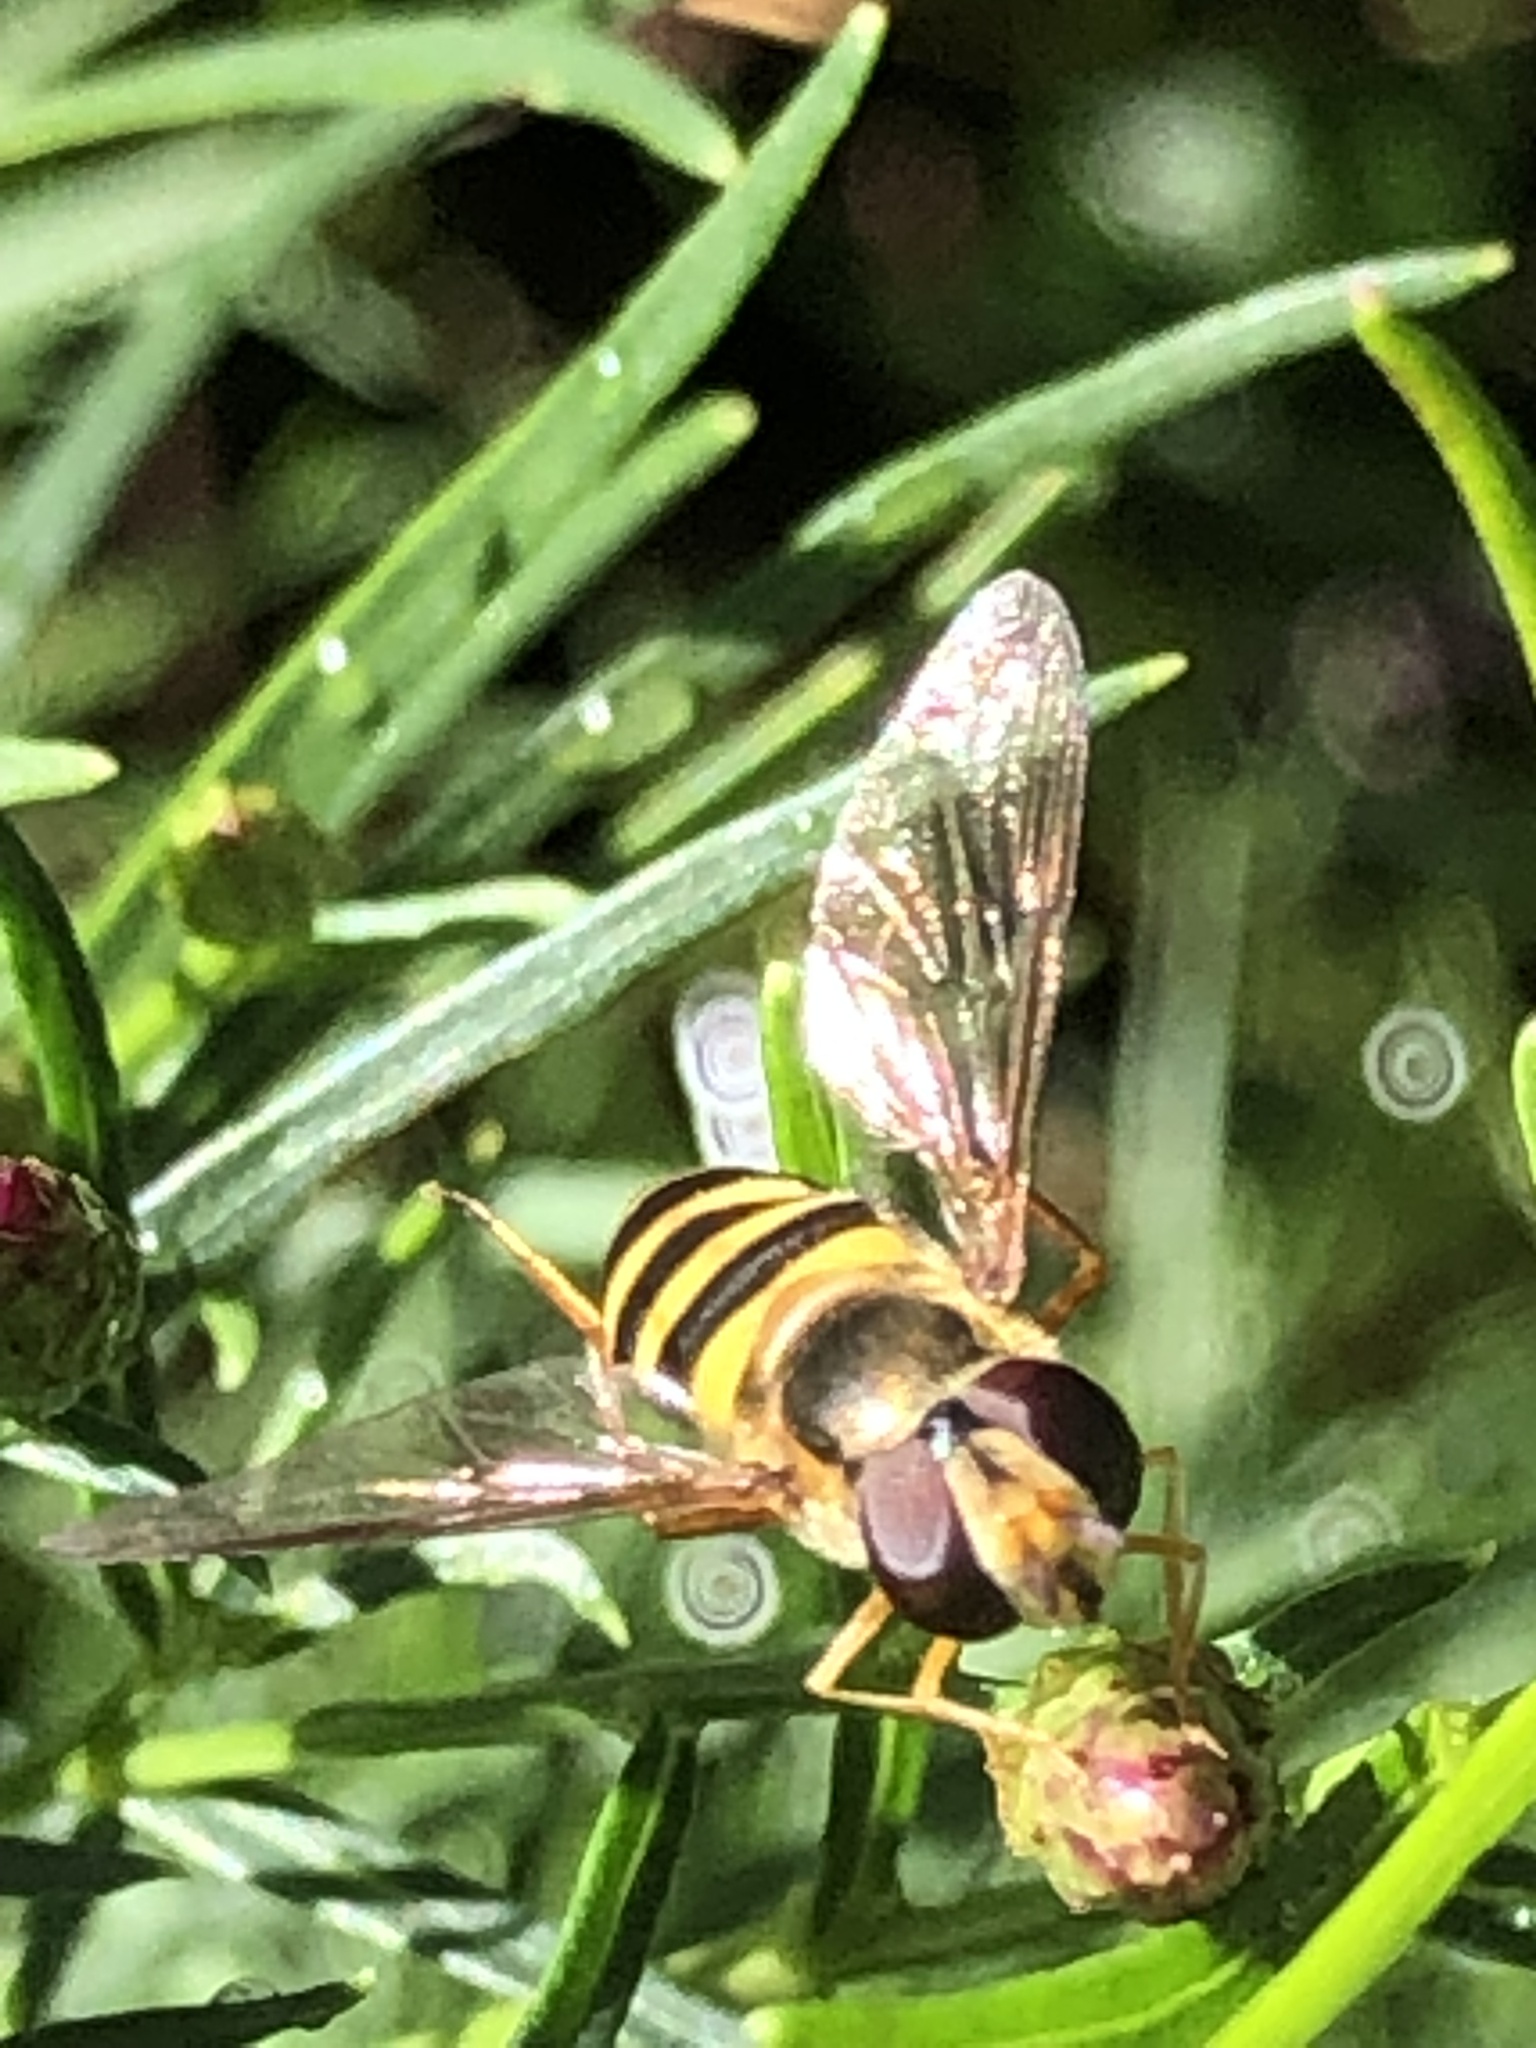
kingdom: Animalia
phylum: Arthropoda
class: Insecta
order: Diptera
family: Syrphidae
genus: Eupeodes
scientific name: Eupeodes
